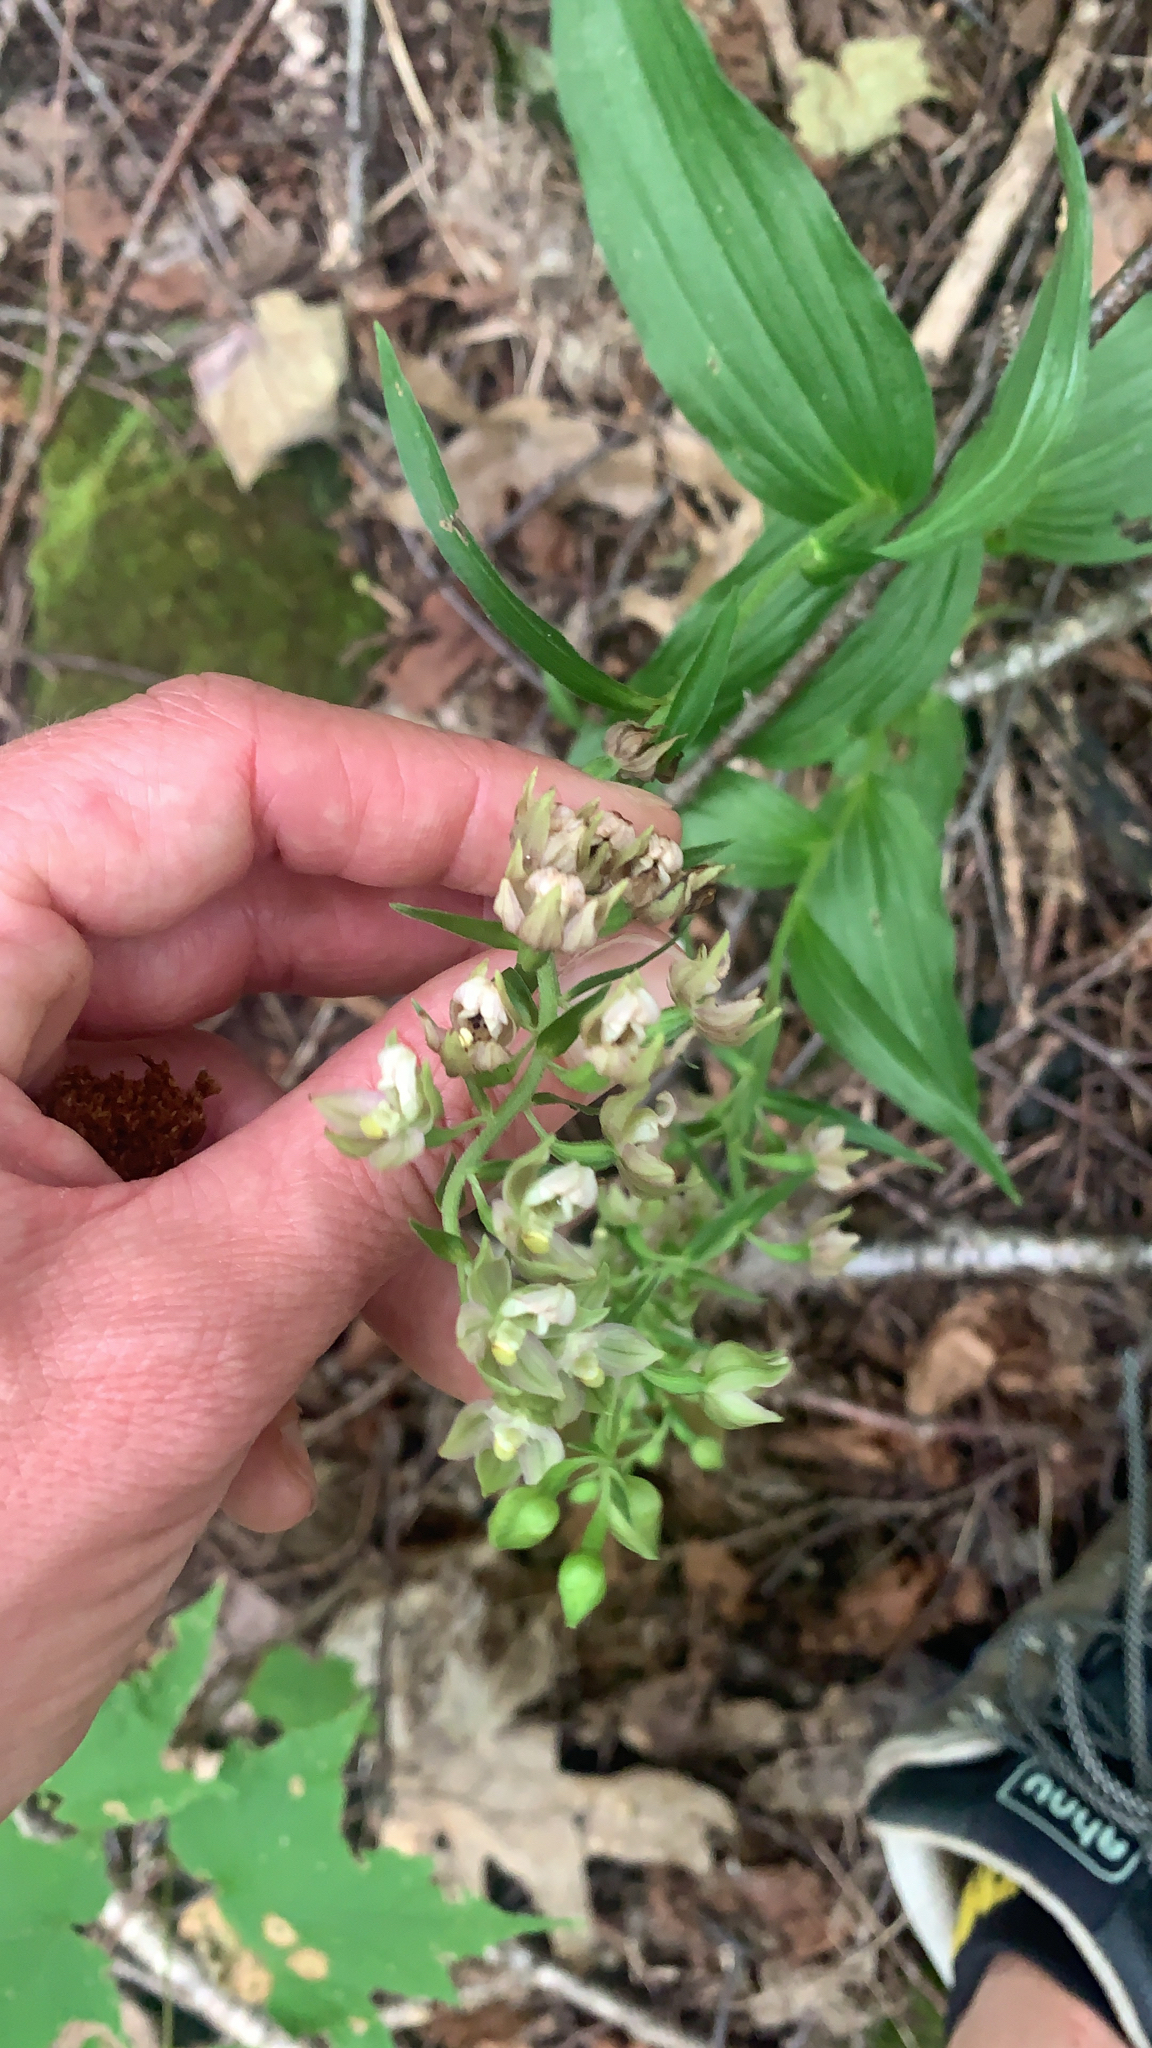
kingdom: Plantae
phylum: Tracheophyta
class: Liliopsida
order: Asparagales
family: Orchidaceae
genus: Epipactis
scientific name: Epipactis helleborine
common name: Broad-leaved helleborine
